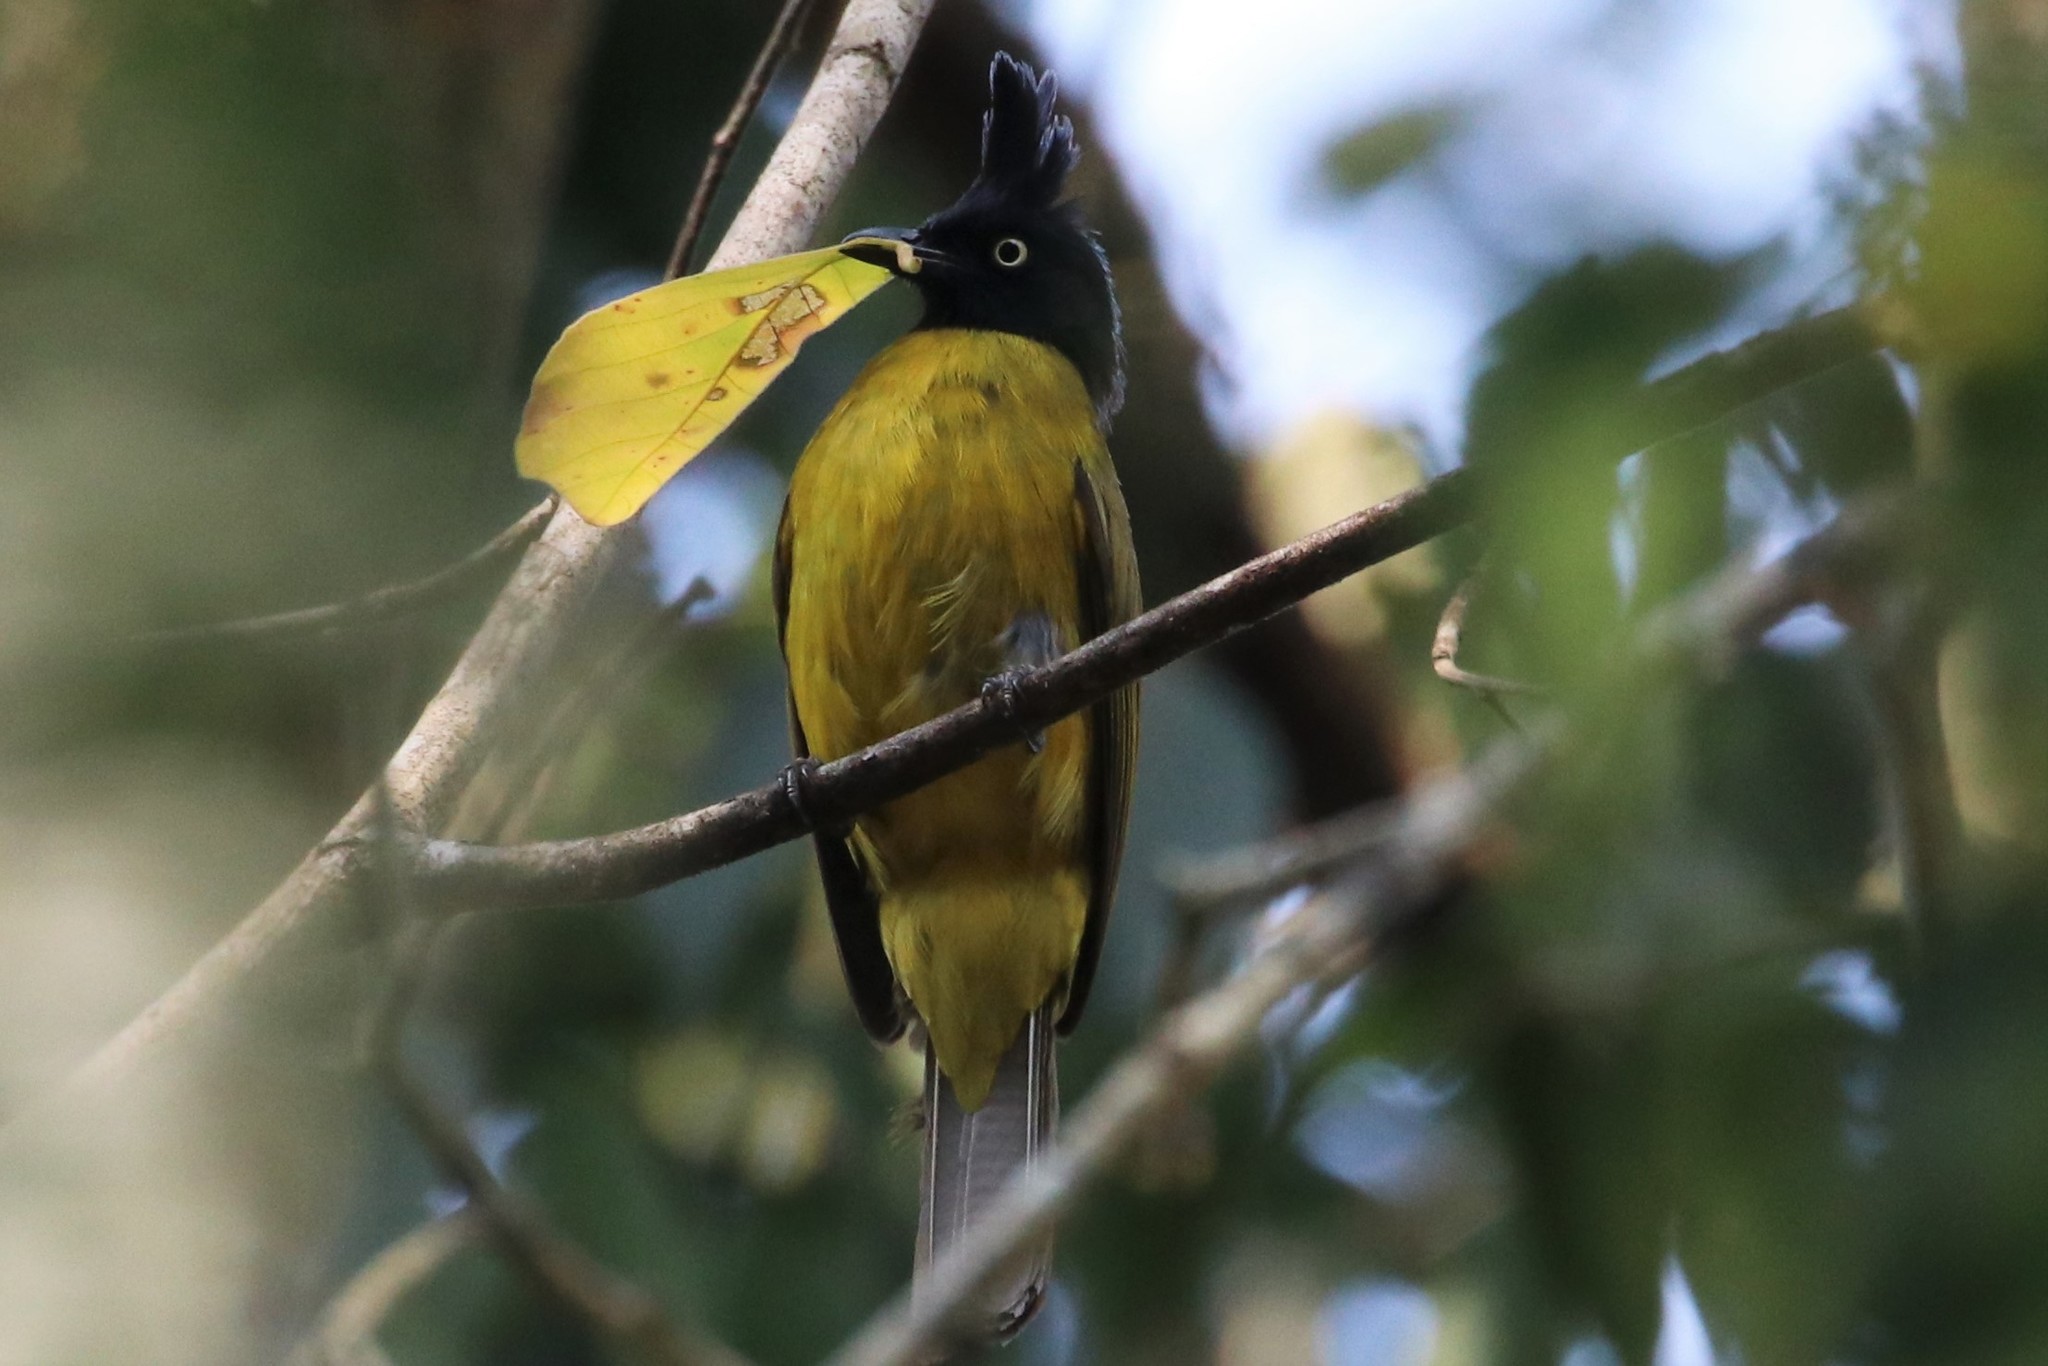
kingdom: Animalia
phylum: Chordata
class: Aves
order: Passeriformes
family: Pycnonotidae
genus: Pycnonotus
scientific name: Pycnonotus flaviventris
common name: Black-crested bulbul
